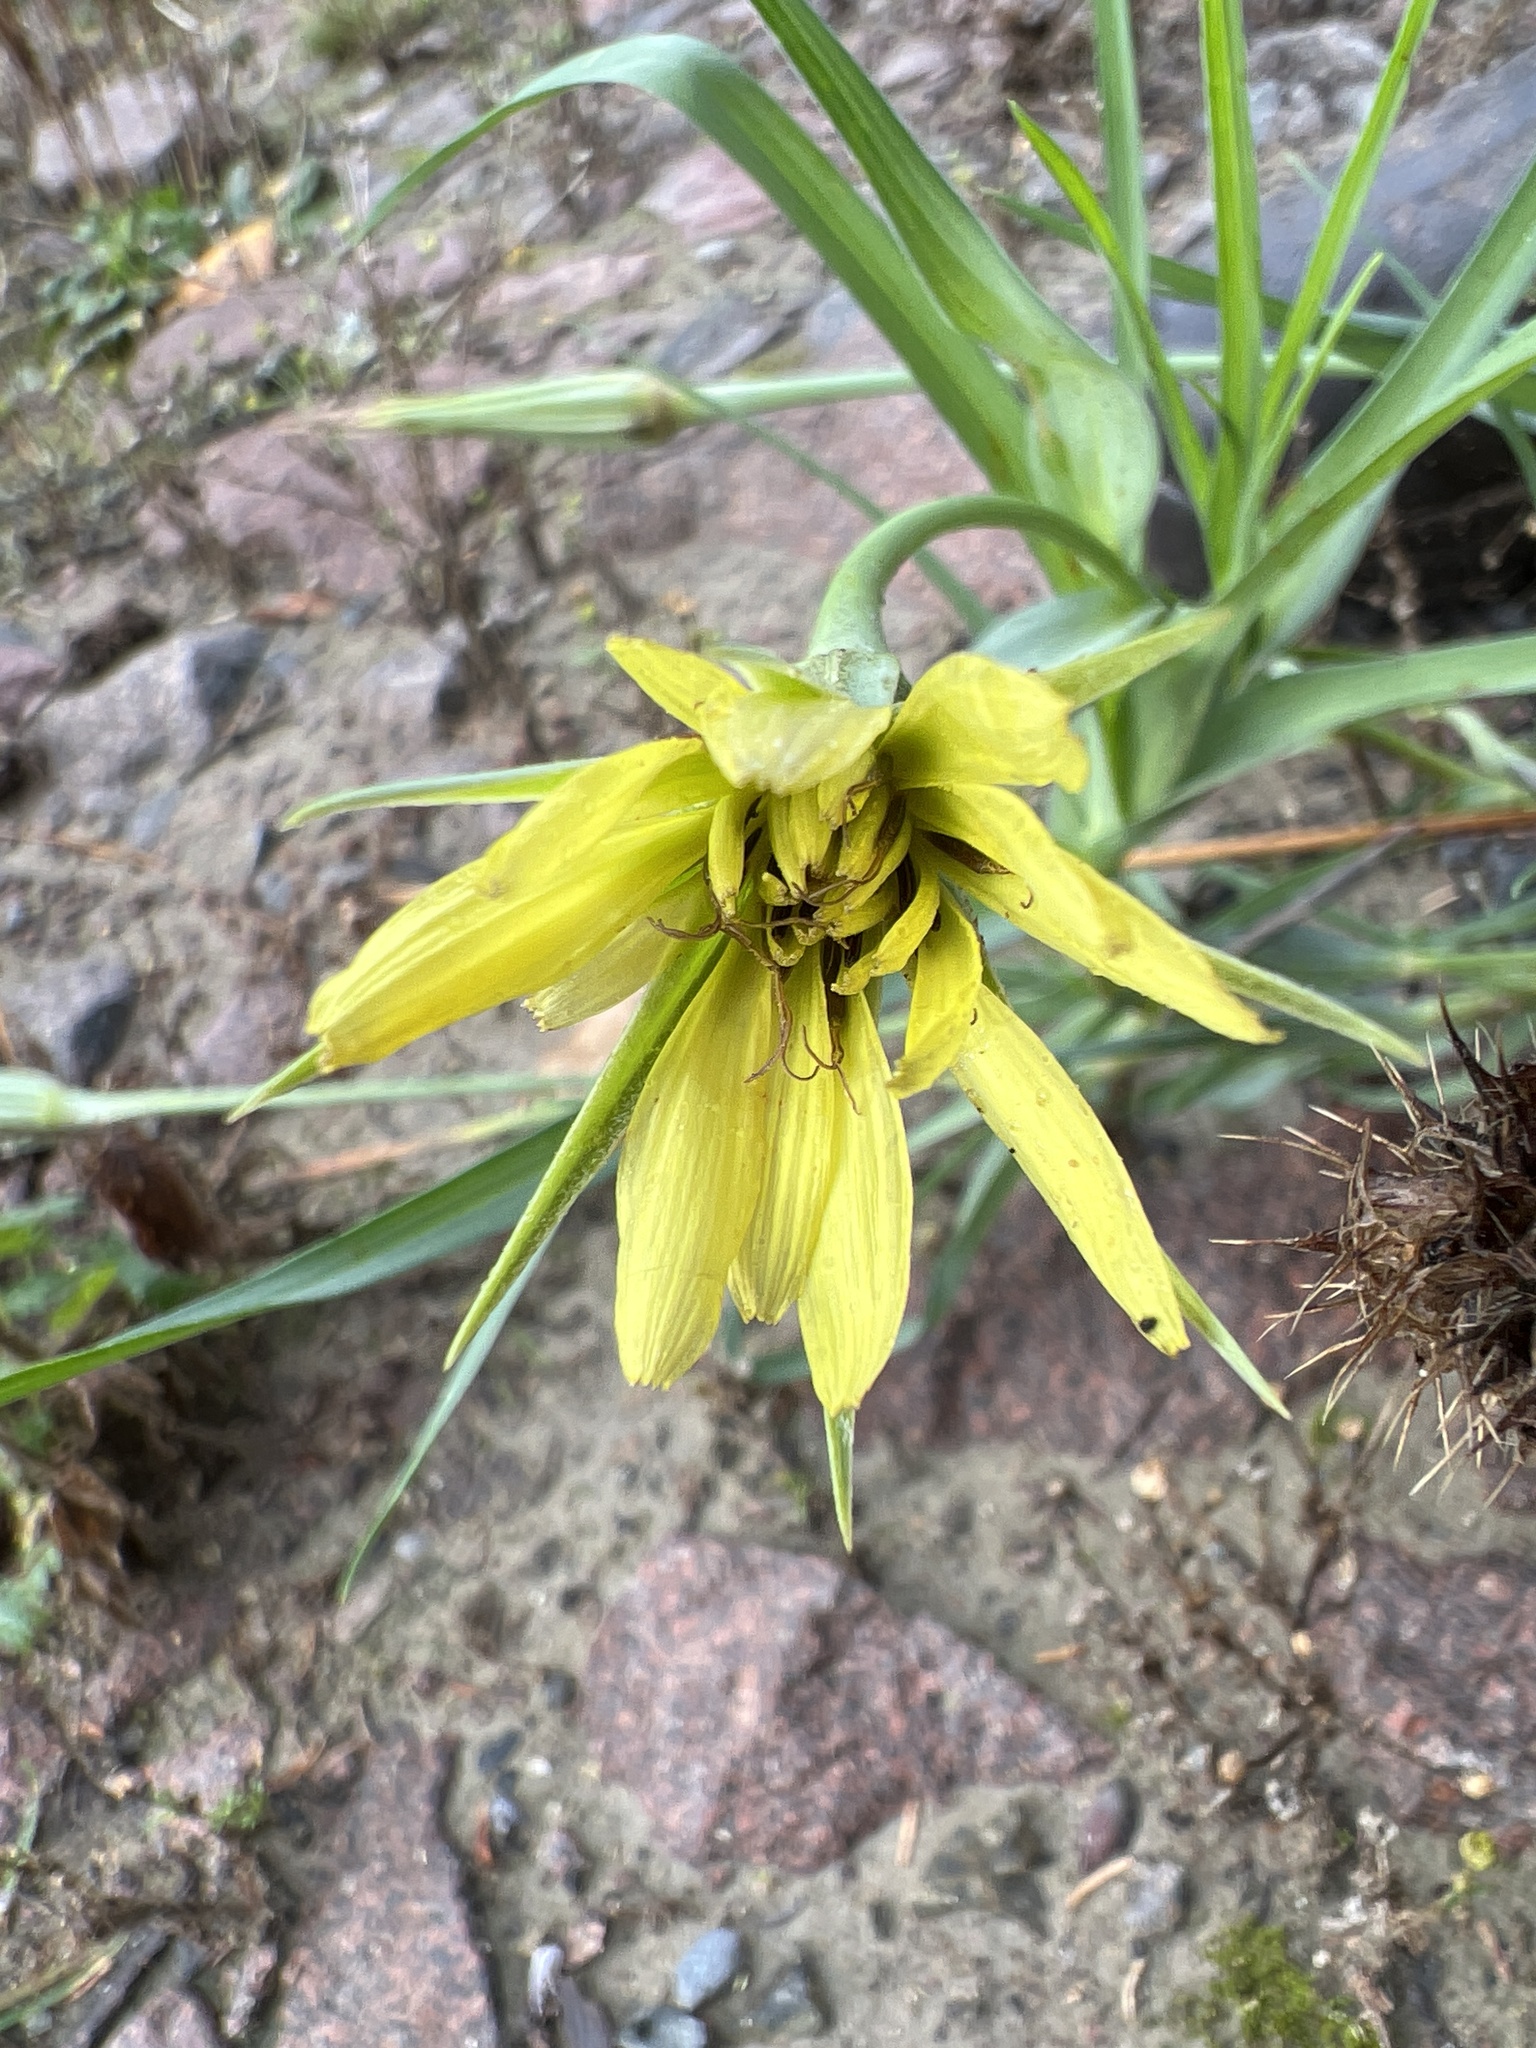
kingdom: Plantae
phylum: Tracheophyta
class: Magnoliopsida
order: Asterales
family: Asteraceae
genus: Tragopogon
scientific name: Tragopogon dubius
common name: Yellow salsify
